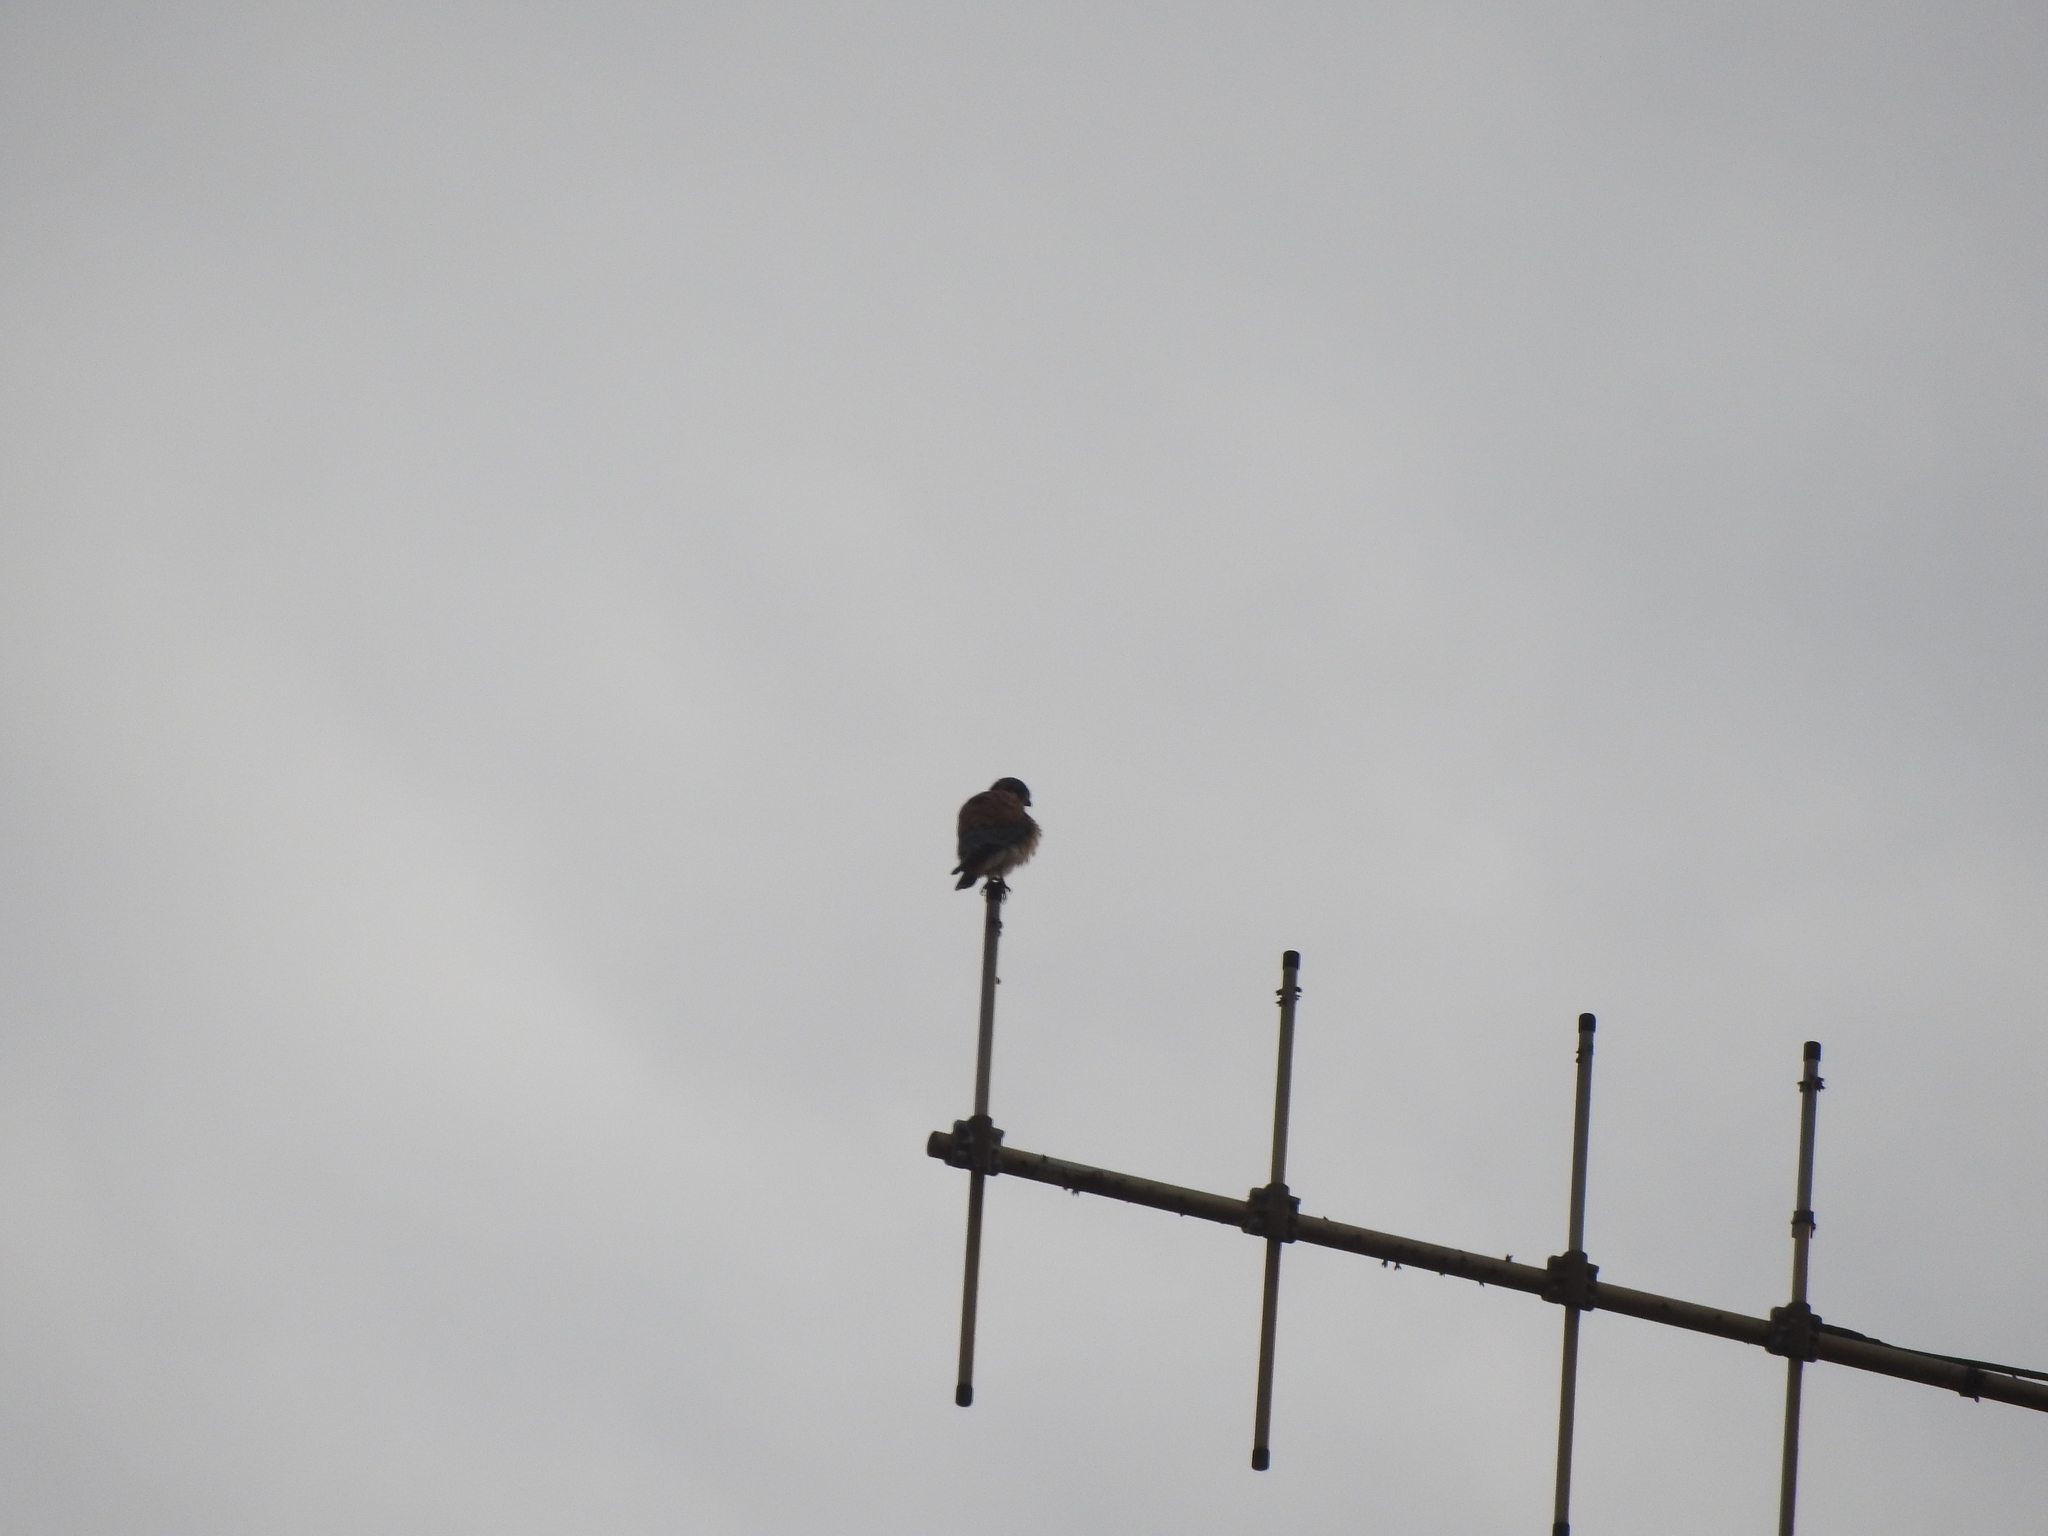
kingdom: Animalia
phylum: Chordata
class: Aves
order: Falconiformes
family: Falconidae
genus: Falco
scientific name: Falco sparverius
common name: American kestrel
